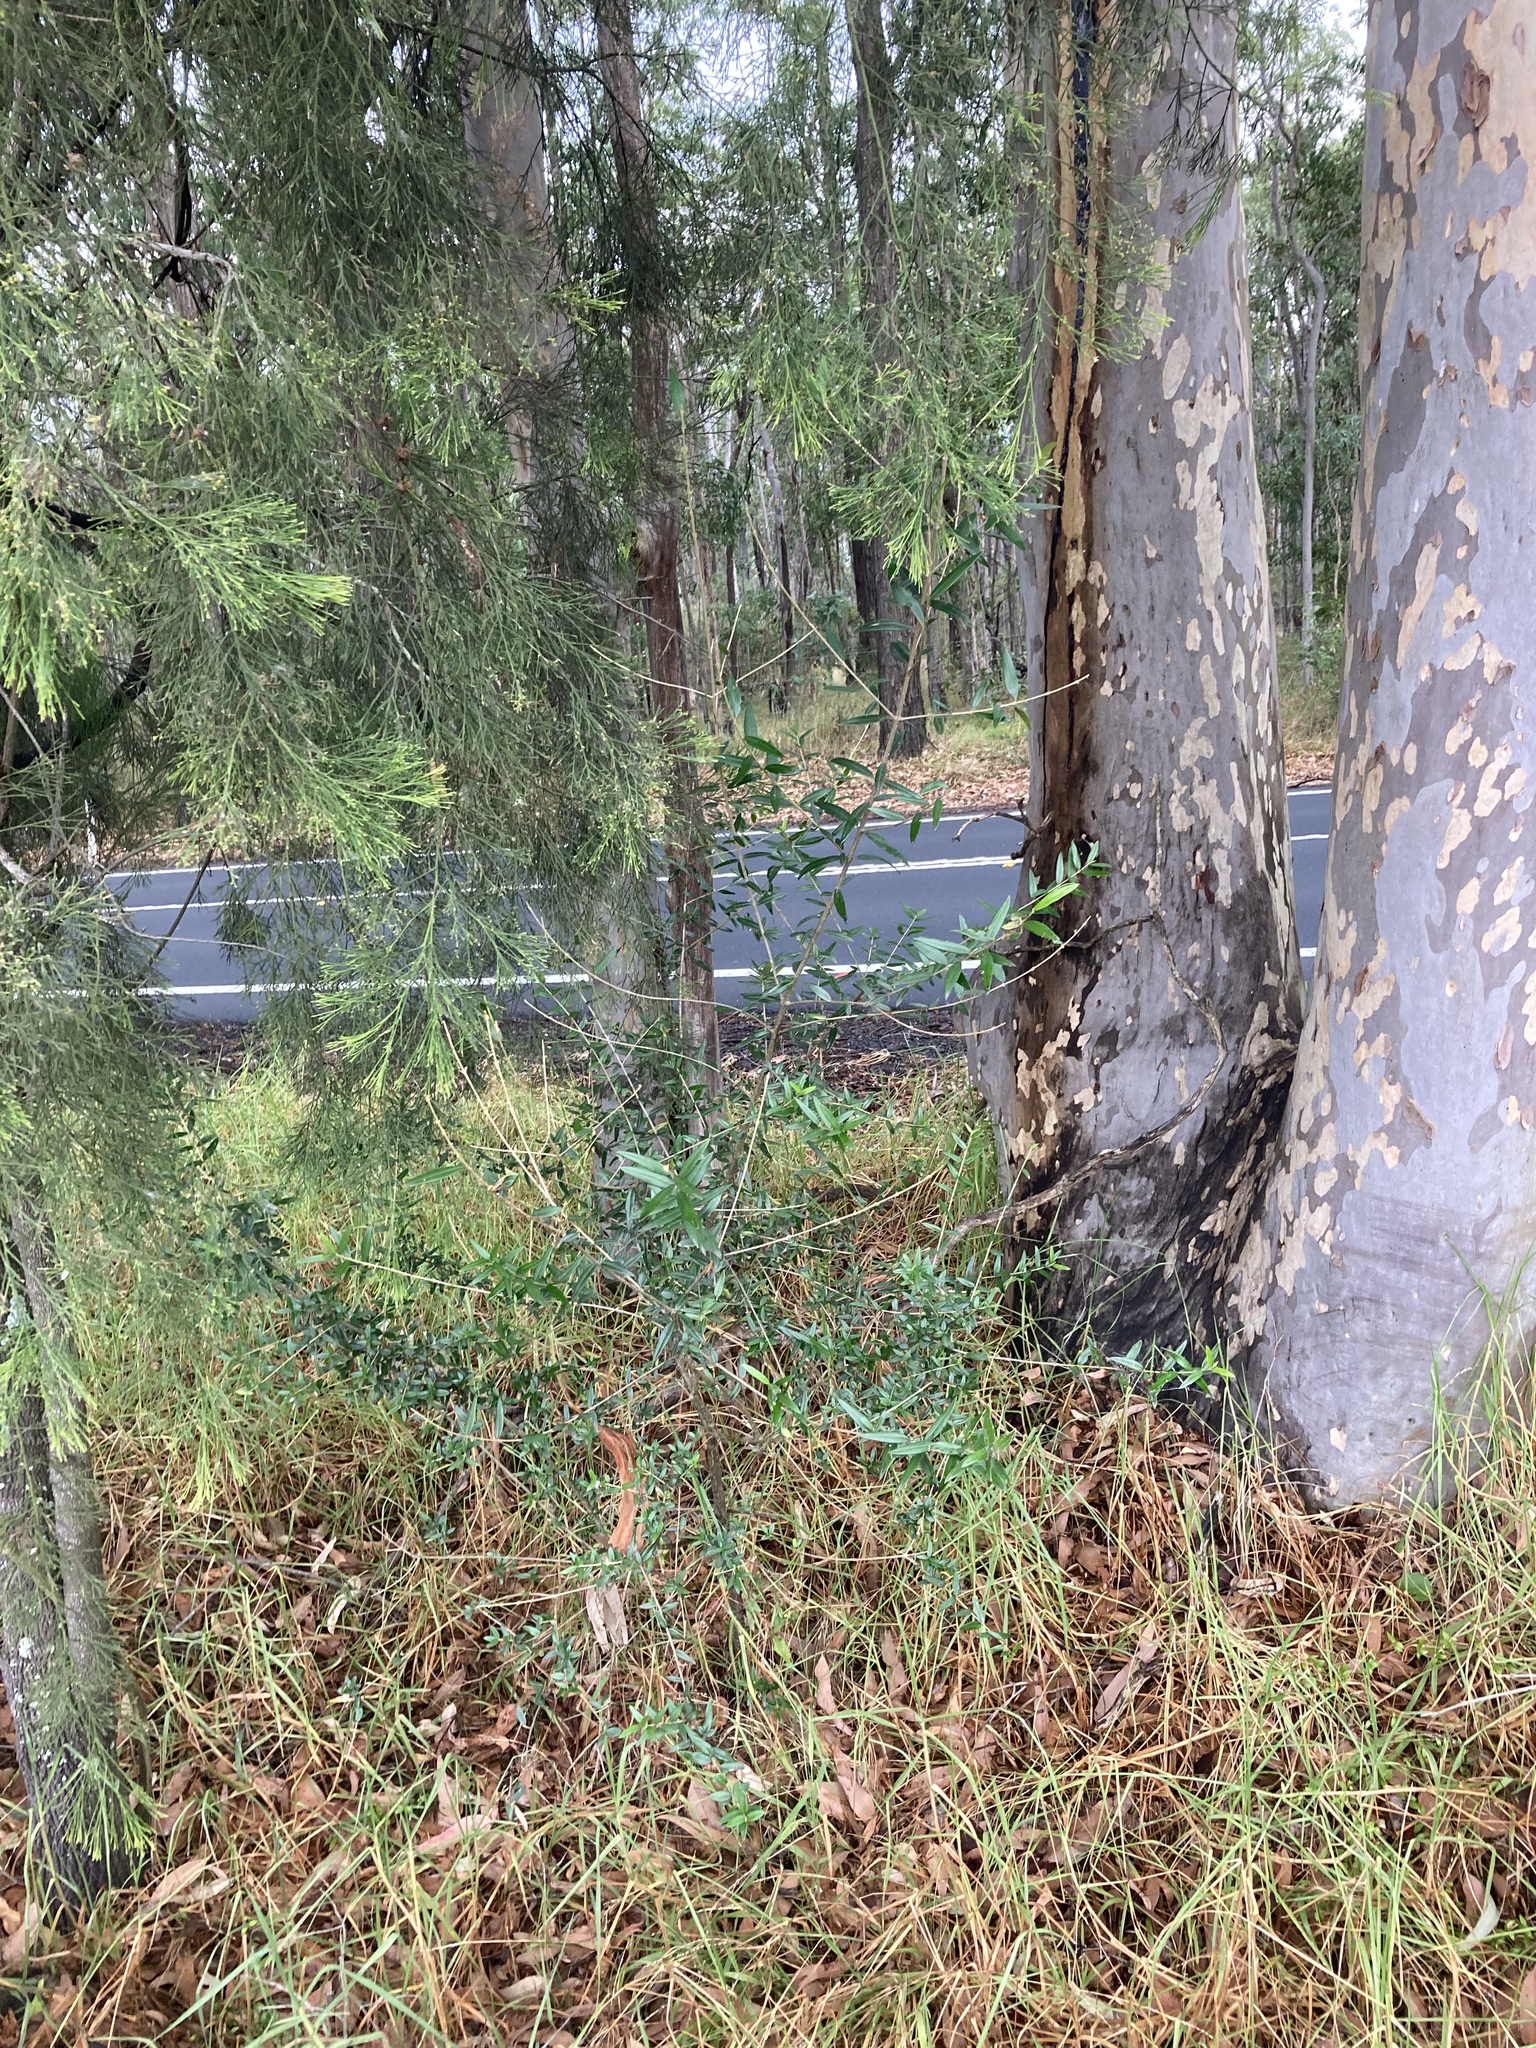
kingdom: Plantae
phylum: Tracheophyta
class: Magnoliopsida
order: Lamiales
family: Oleaceae
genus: Olea
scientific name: Olea europaea
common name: Olive
